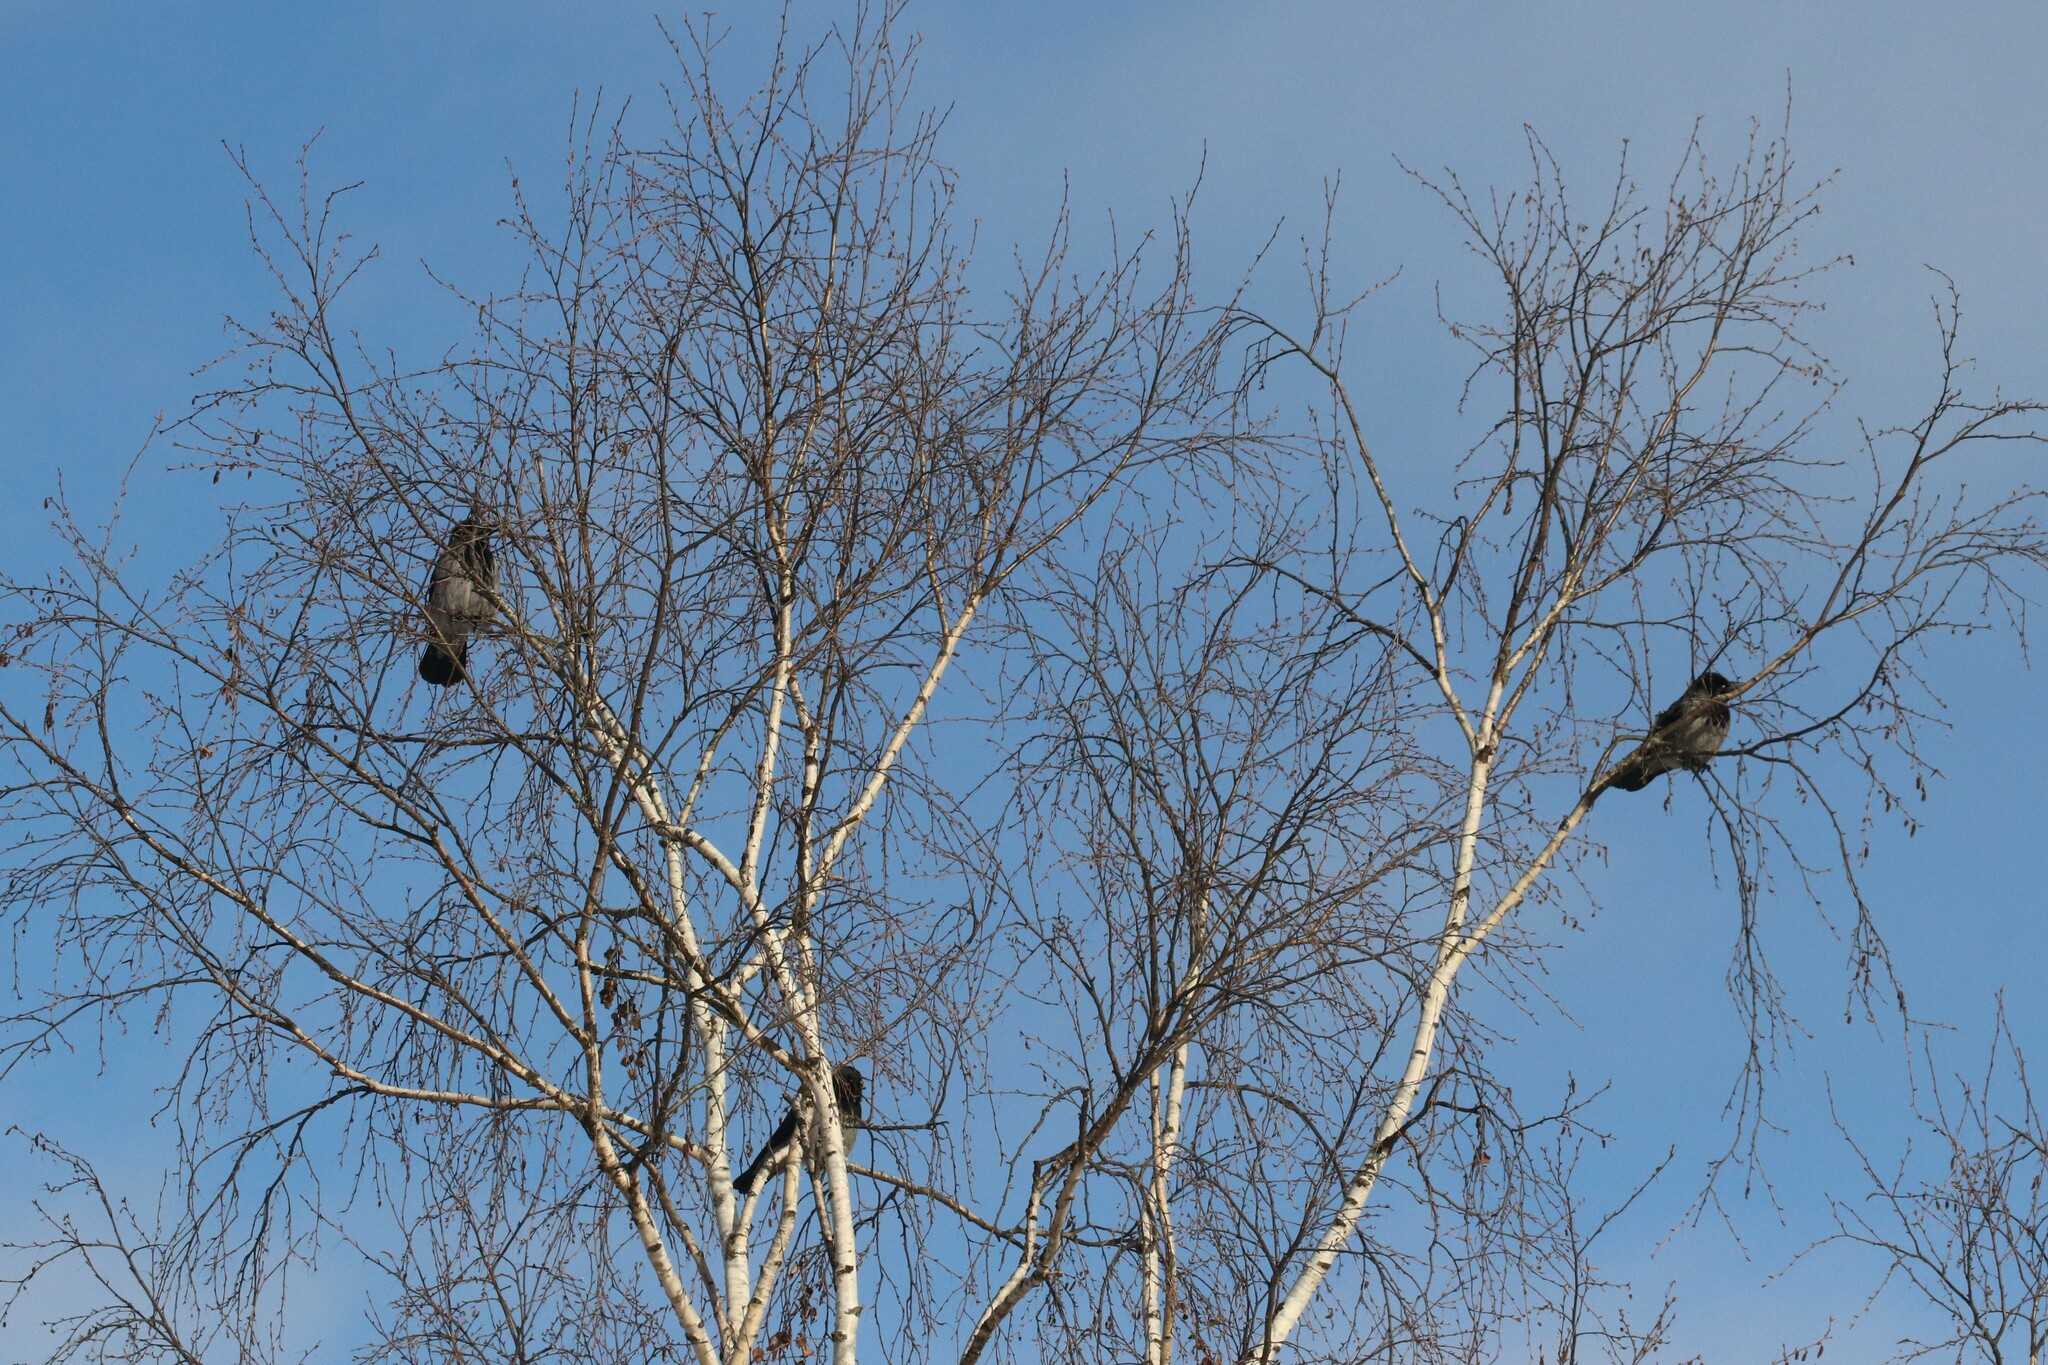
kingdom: Animalia
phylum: Chordata
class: Aves
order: Passeriformes
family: Corvidae
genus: Corvus
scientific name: Corvus cornix
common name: Hooded crow
